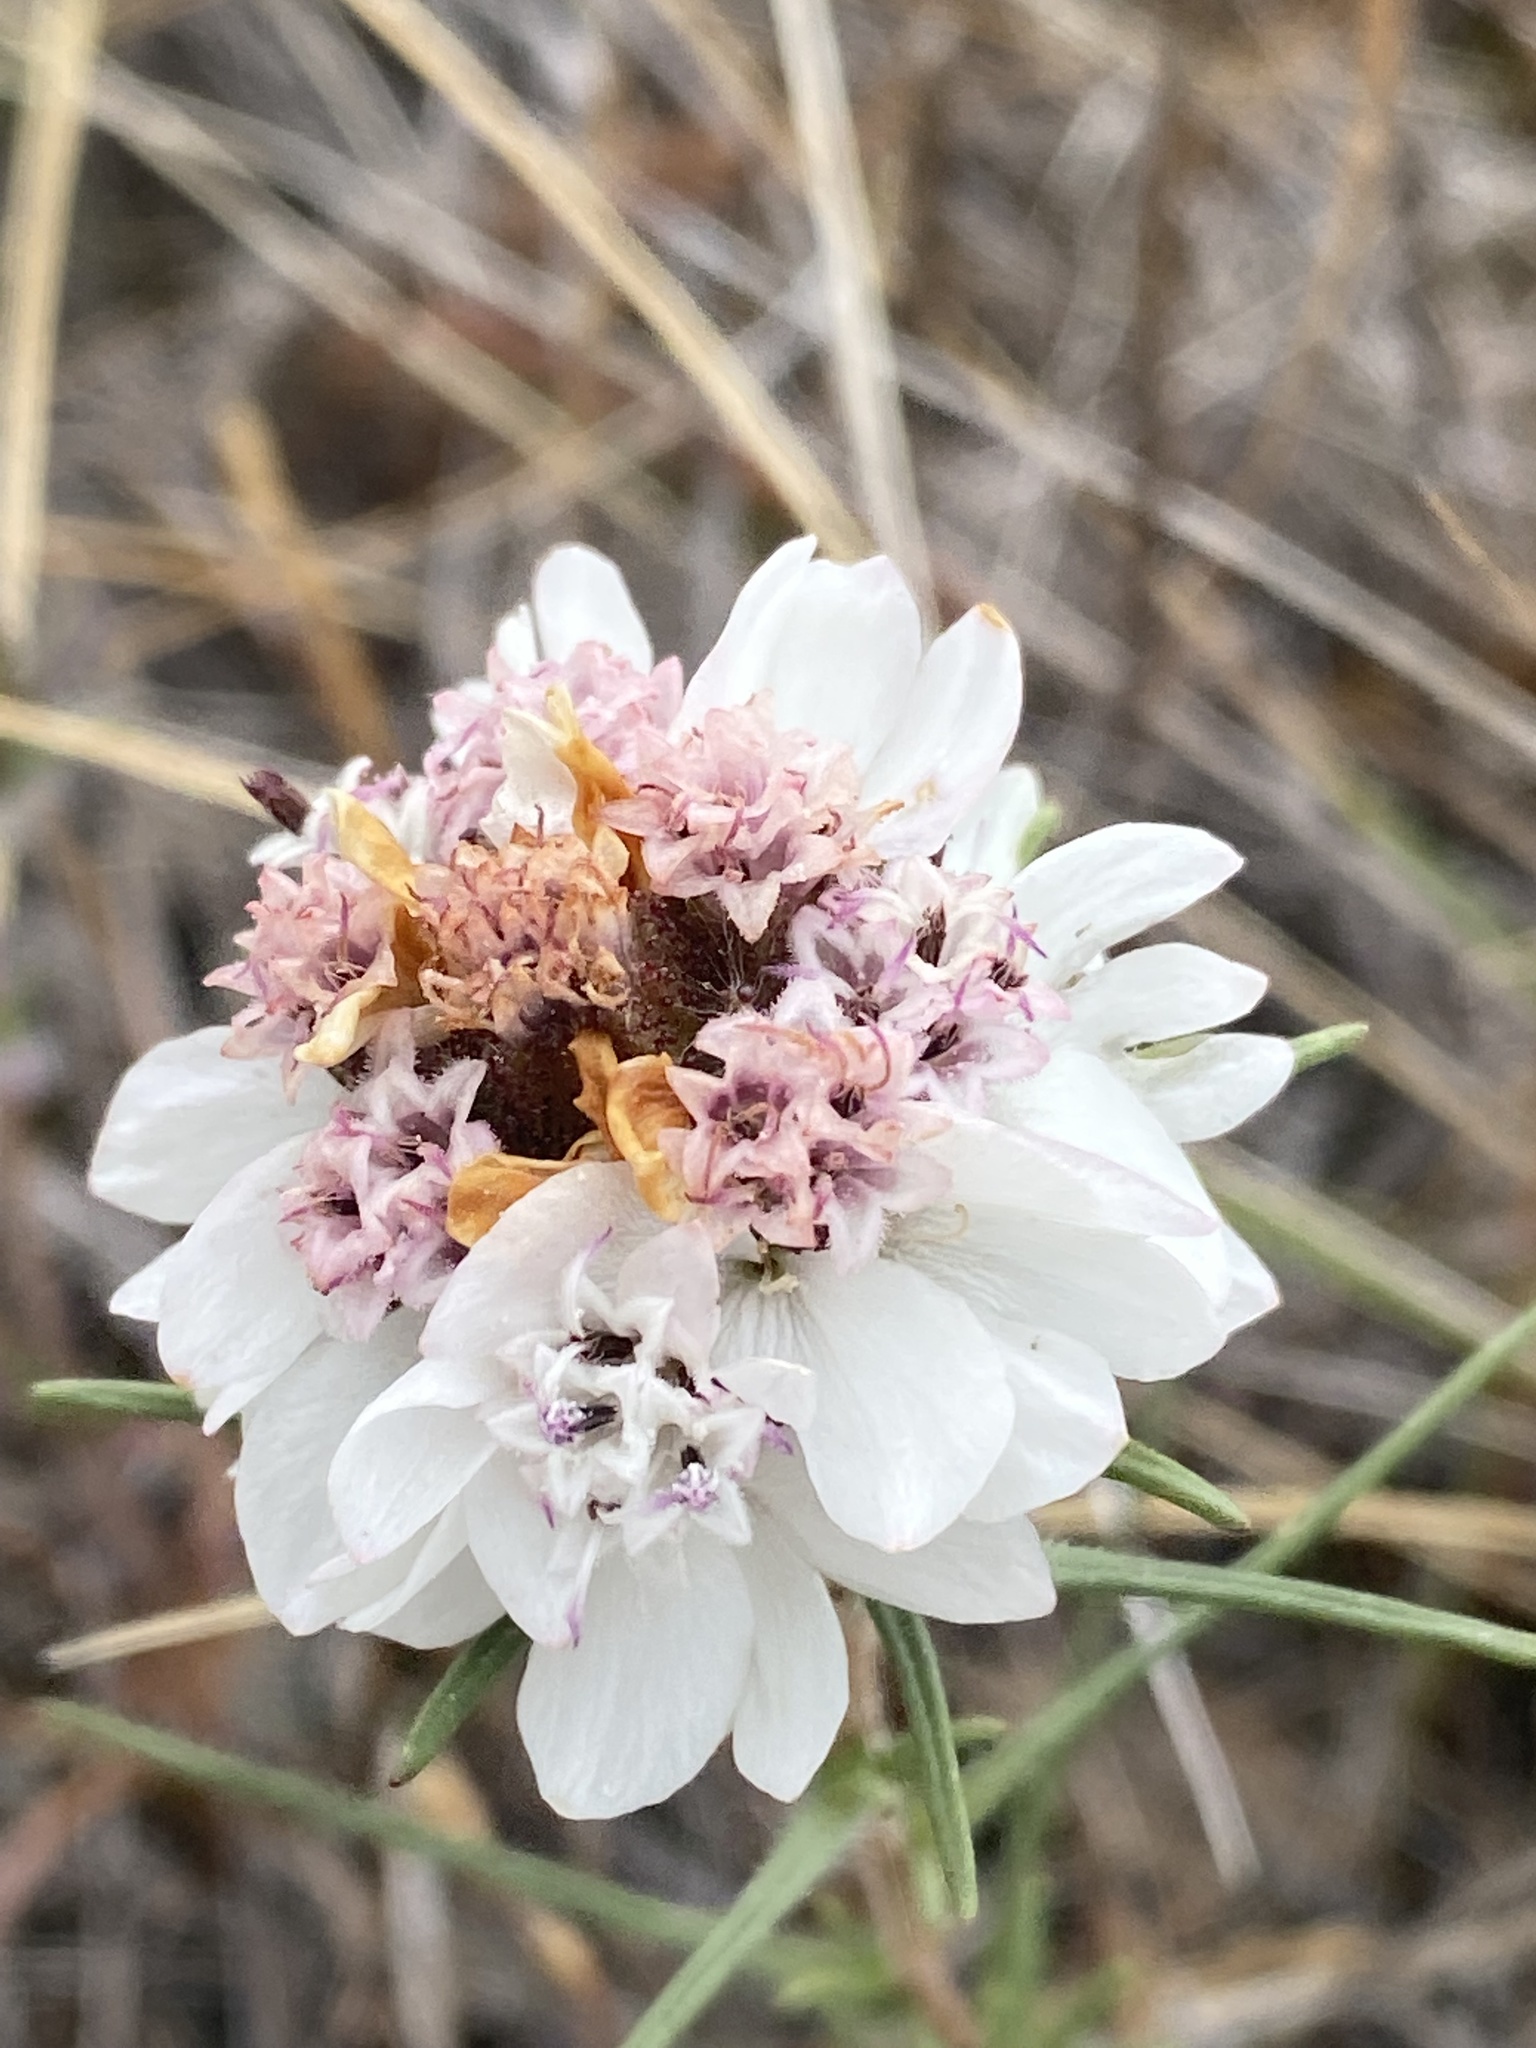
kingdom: Plantae
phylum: Tracheophyta
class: Magnoliopsida
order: Asterales
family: Asteraceae
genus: Calycadenia
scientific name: Calycadenia multiglandulosa
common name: Sticky calycadenia
